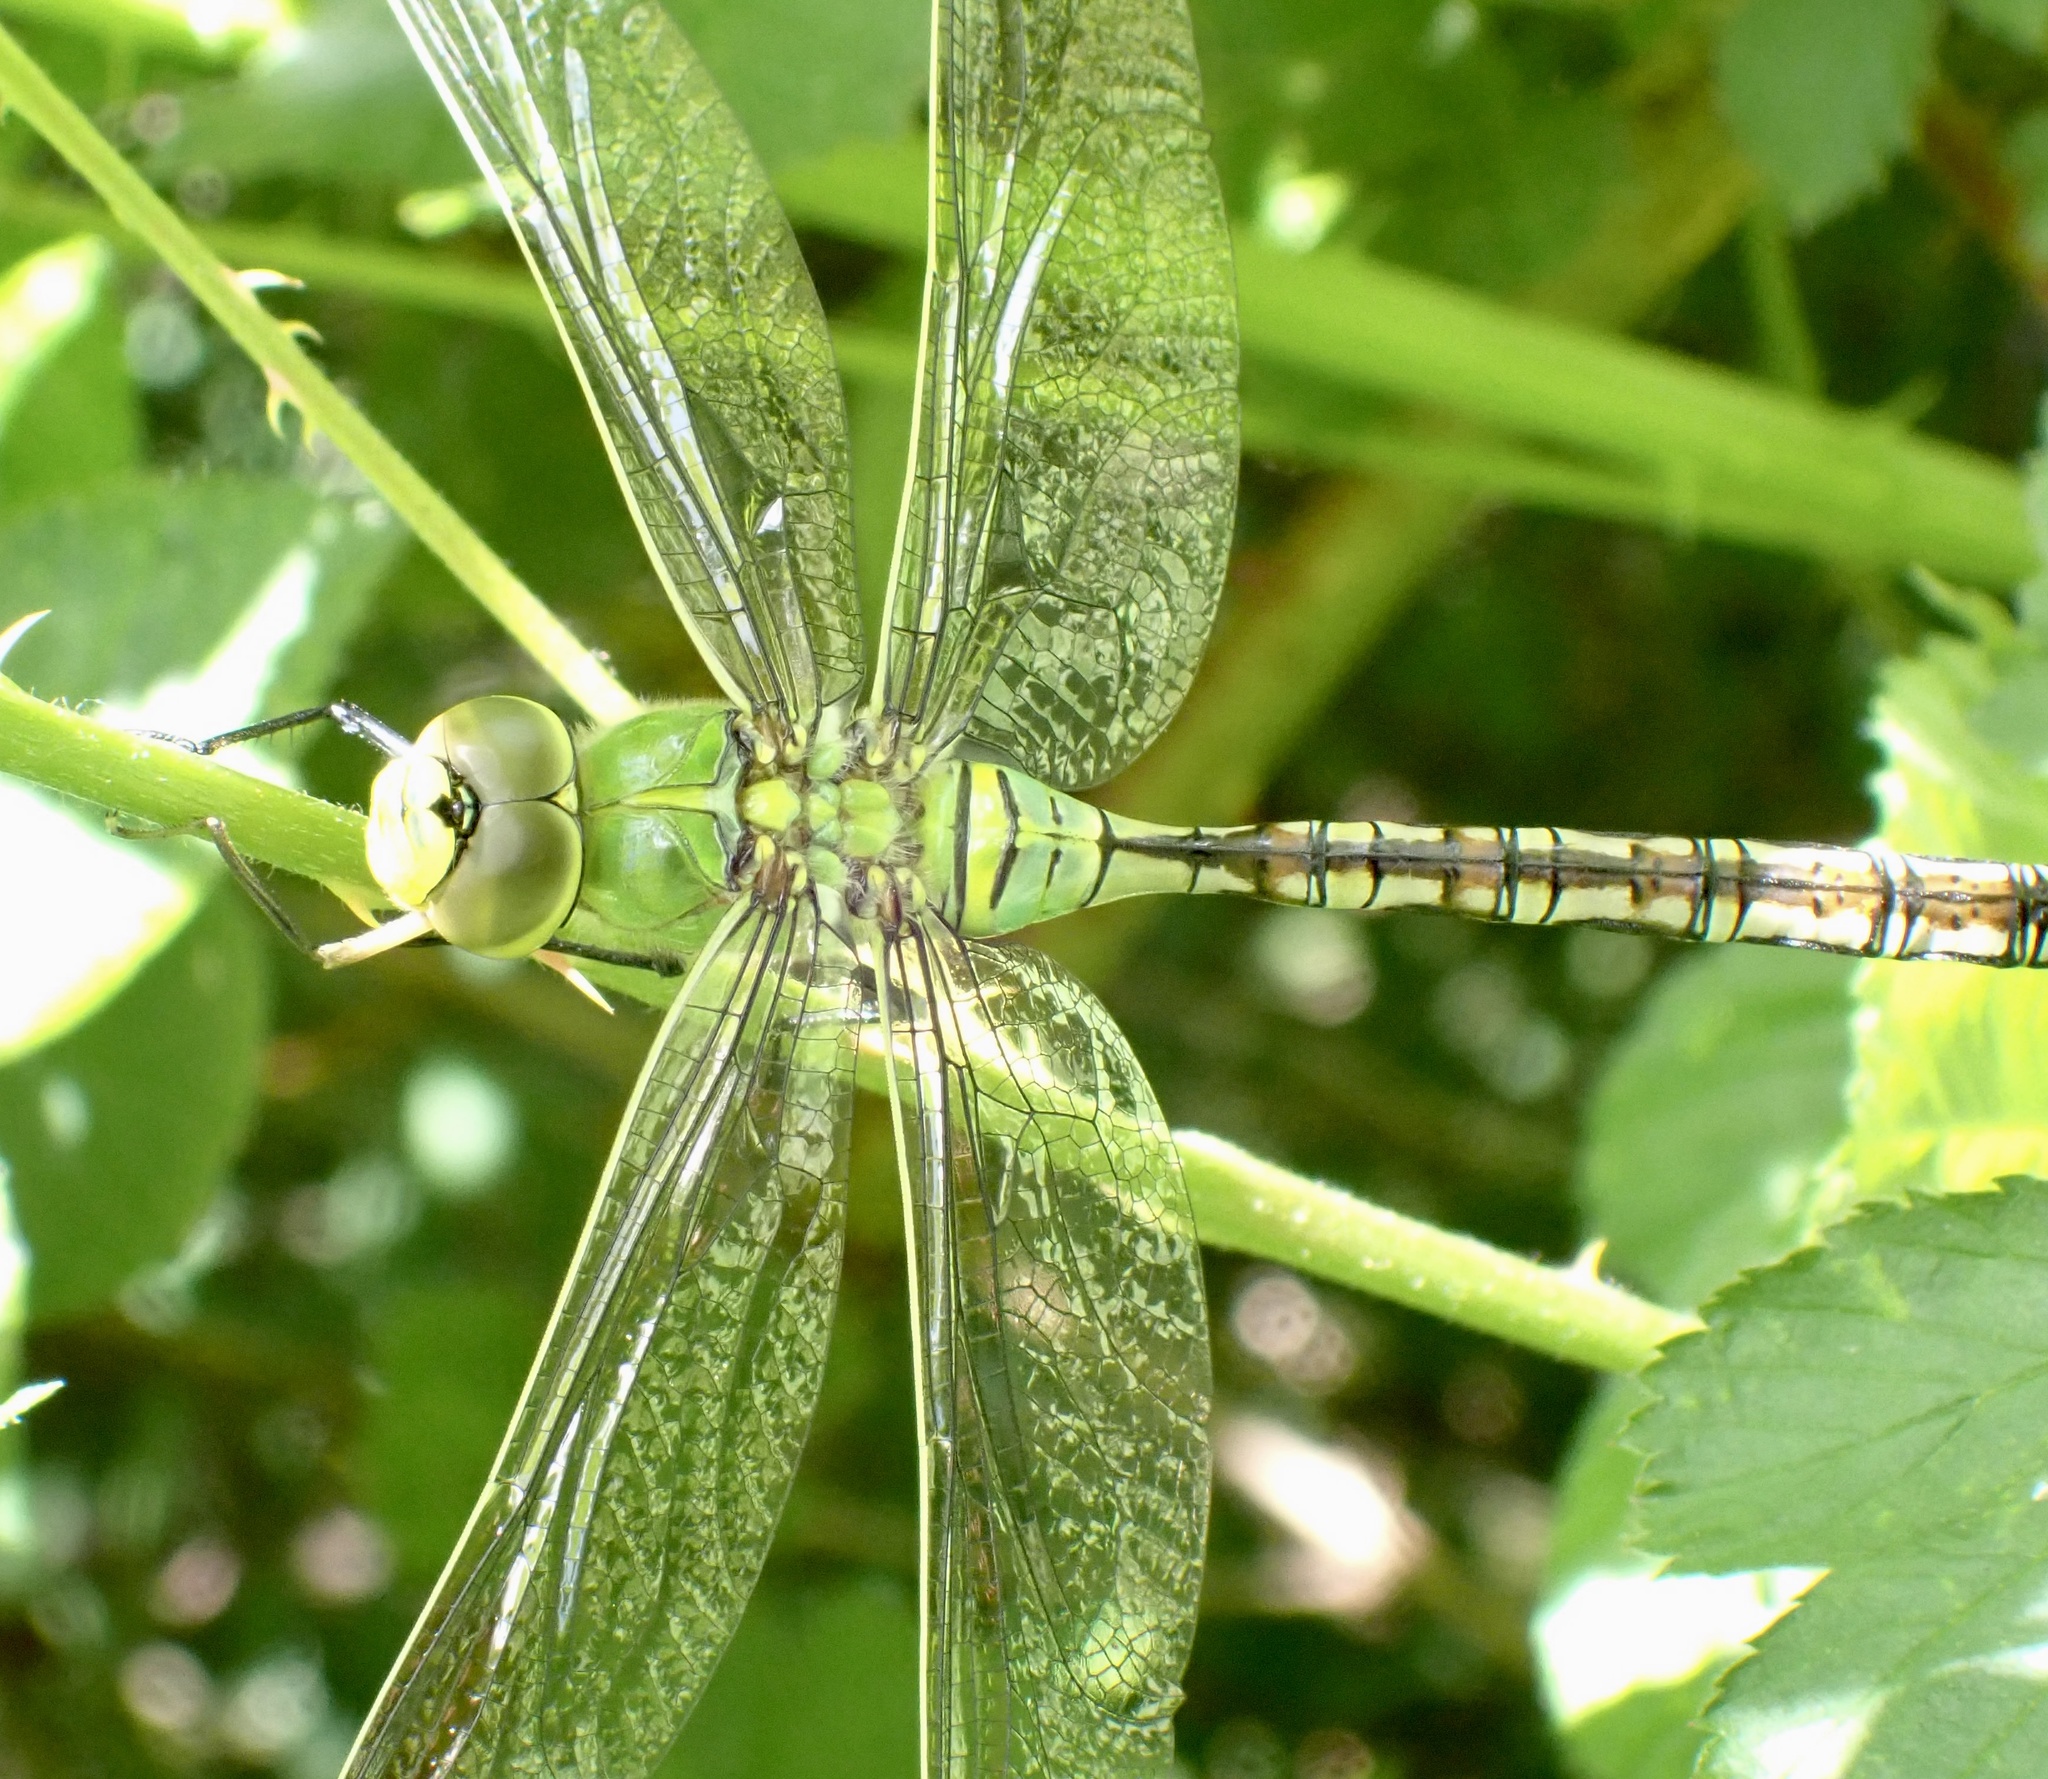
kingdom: Animalia
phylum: Arthropoda
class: Insecta
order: Odonata
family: Aeshnidae
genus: Anax
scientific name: Anax imperator
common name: Emperor dragonfly
